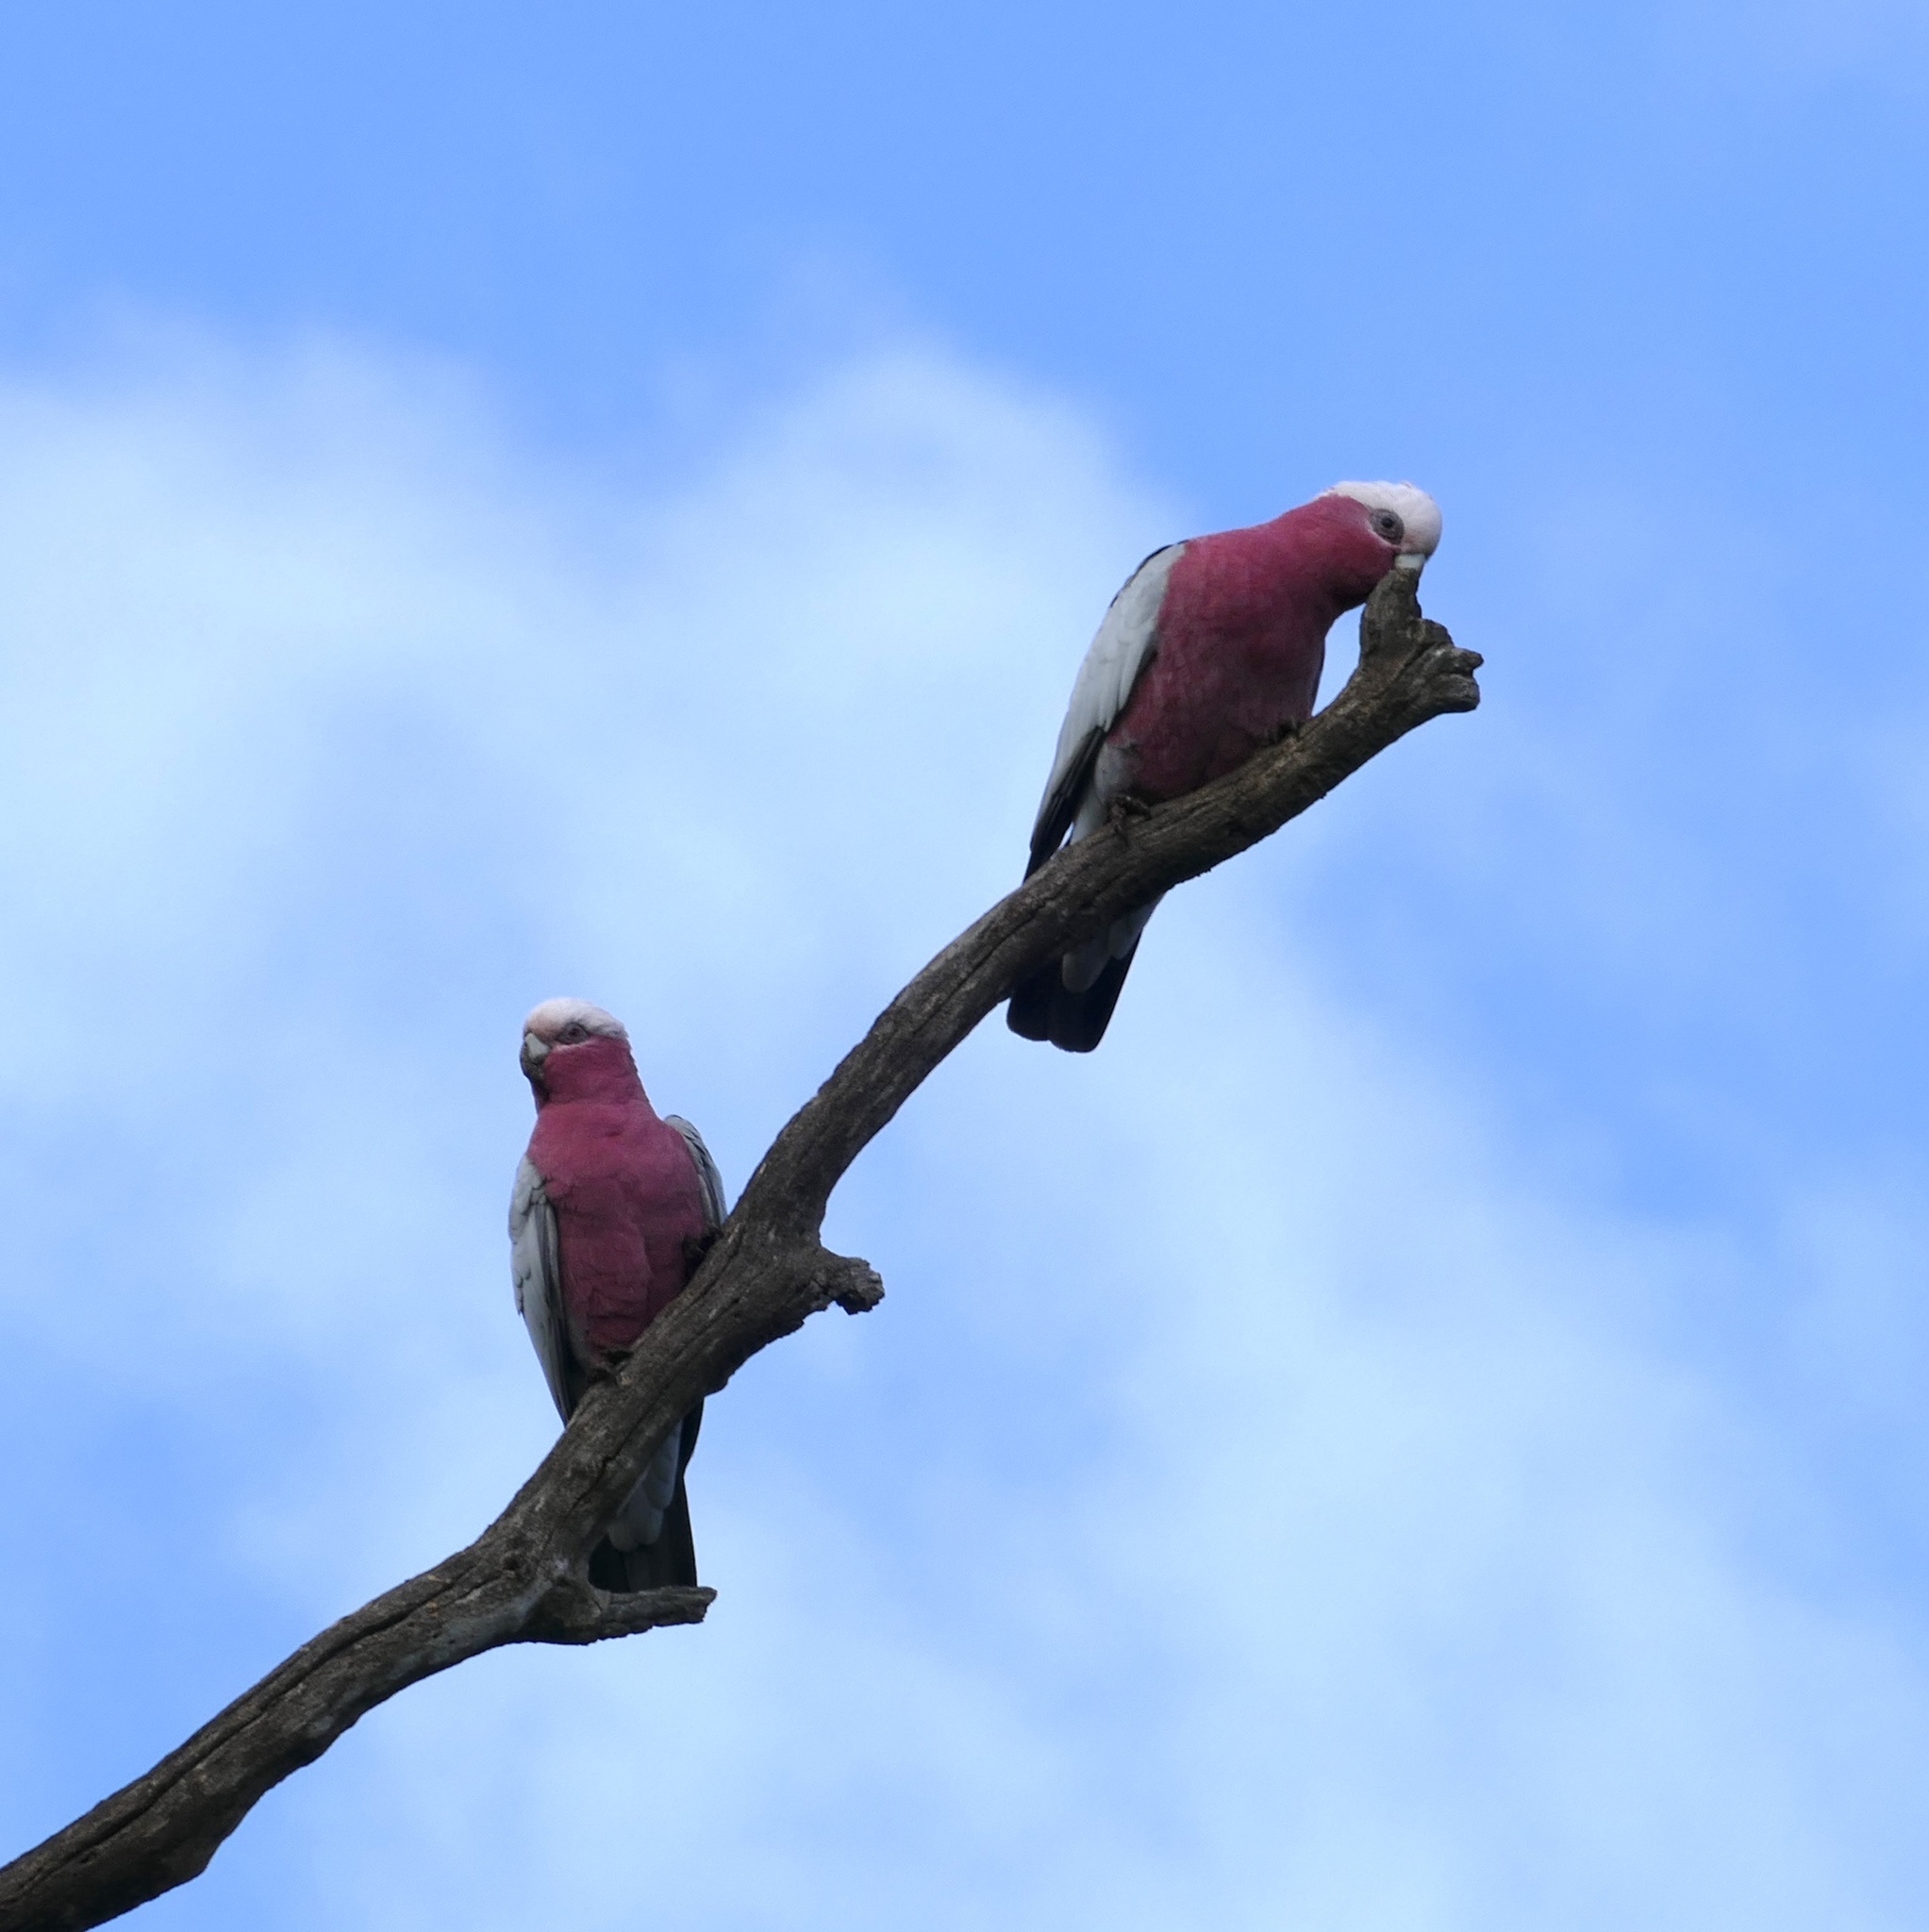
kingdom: Animalia
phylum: Chordata
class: Aves
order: Psittaciformes
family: Psittacidae
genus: Eolophus
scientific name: Eolophus roseicapilla
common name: Galah
